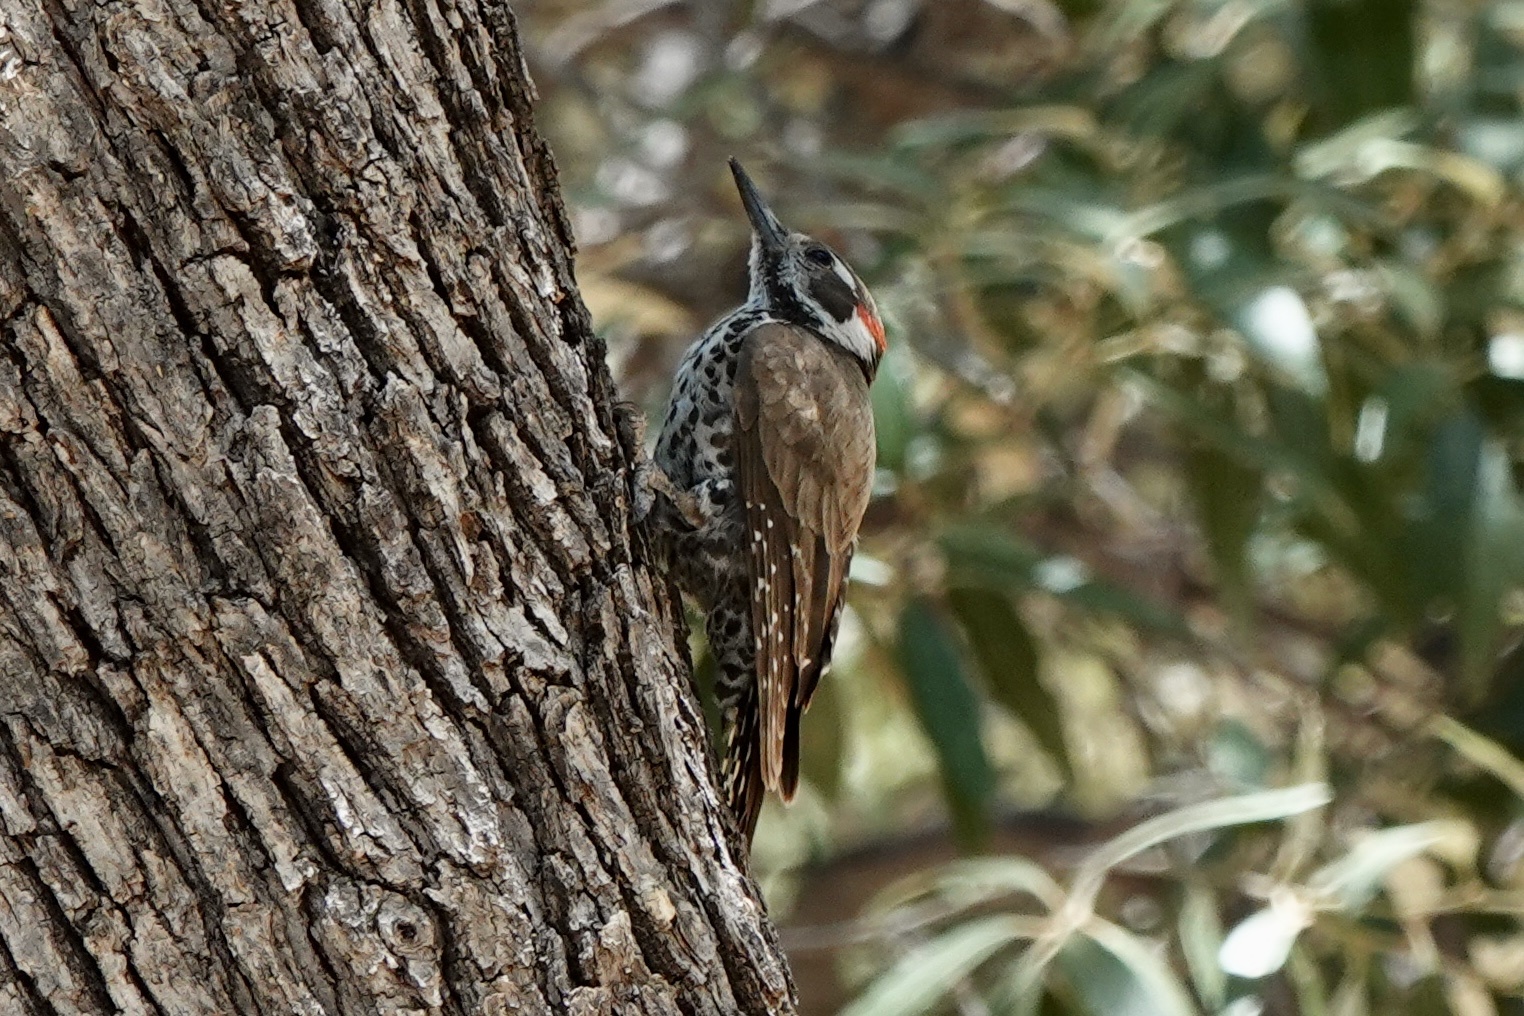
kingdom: Animalia
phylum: Chordata
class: Aves
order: Piciformes
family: Picidae
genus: Leuconotopicus
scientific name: Leuconotopicus arizonae
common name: Arizona woodpecker
